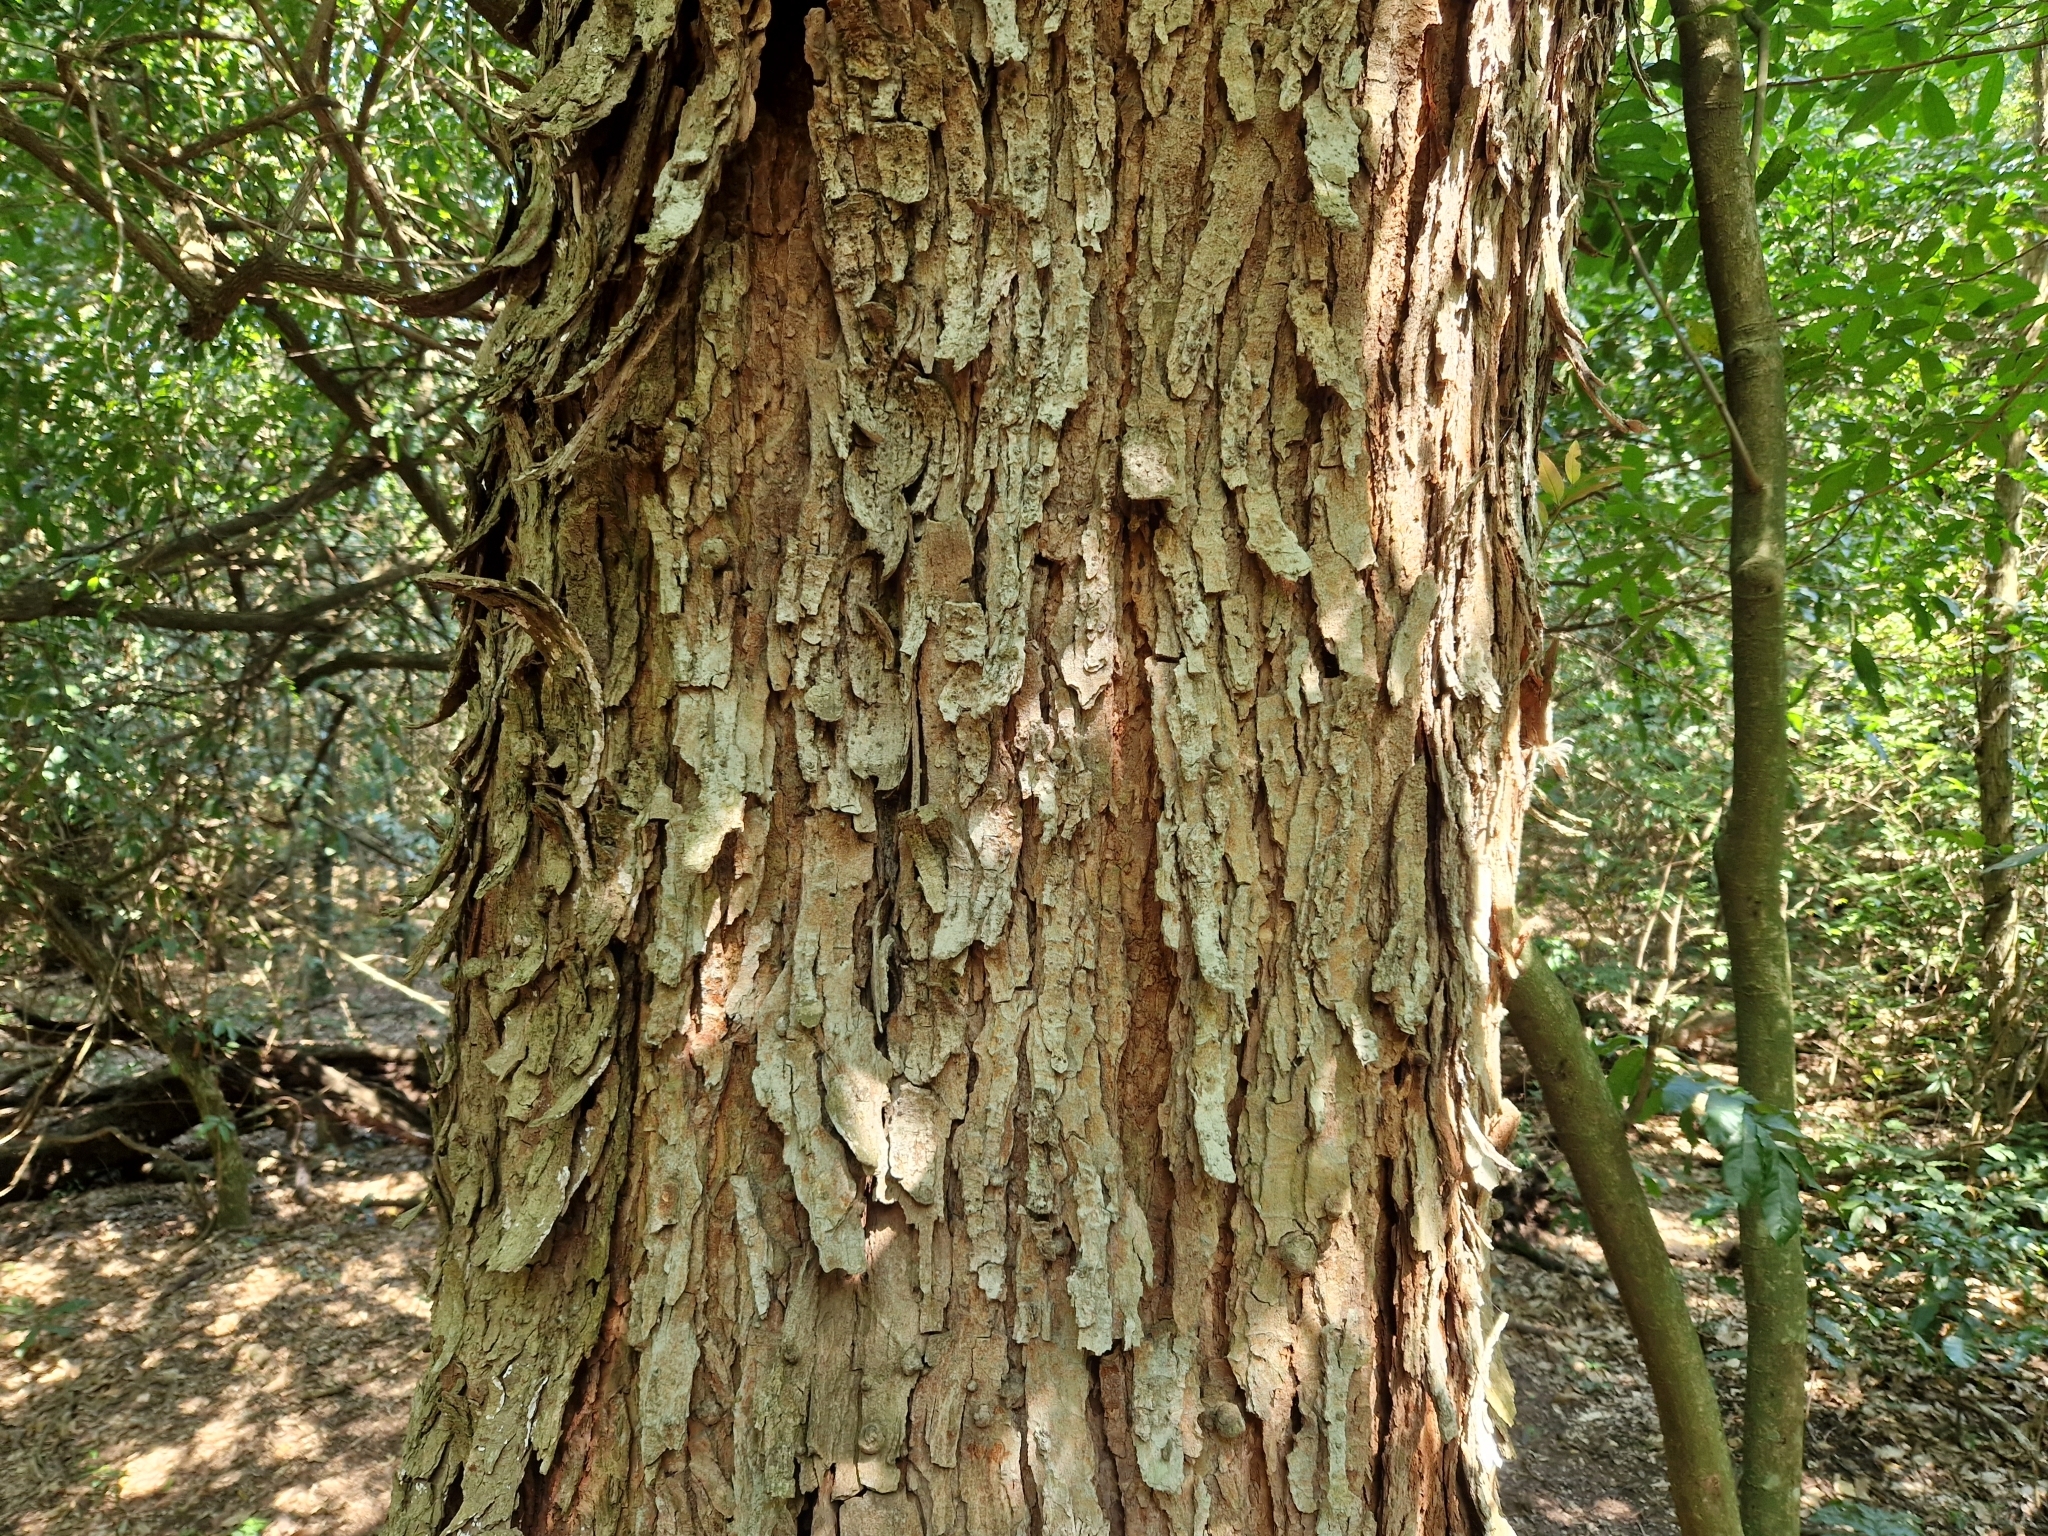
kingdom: Plantae
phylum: Tracheophyta
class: Magnoliopsida
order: Fabales
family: Fabaceae
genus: Parapiptadenia
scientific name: Parapiptadenia rigida
